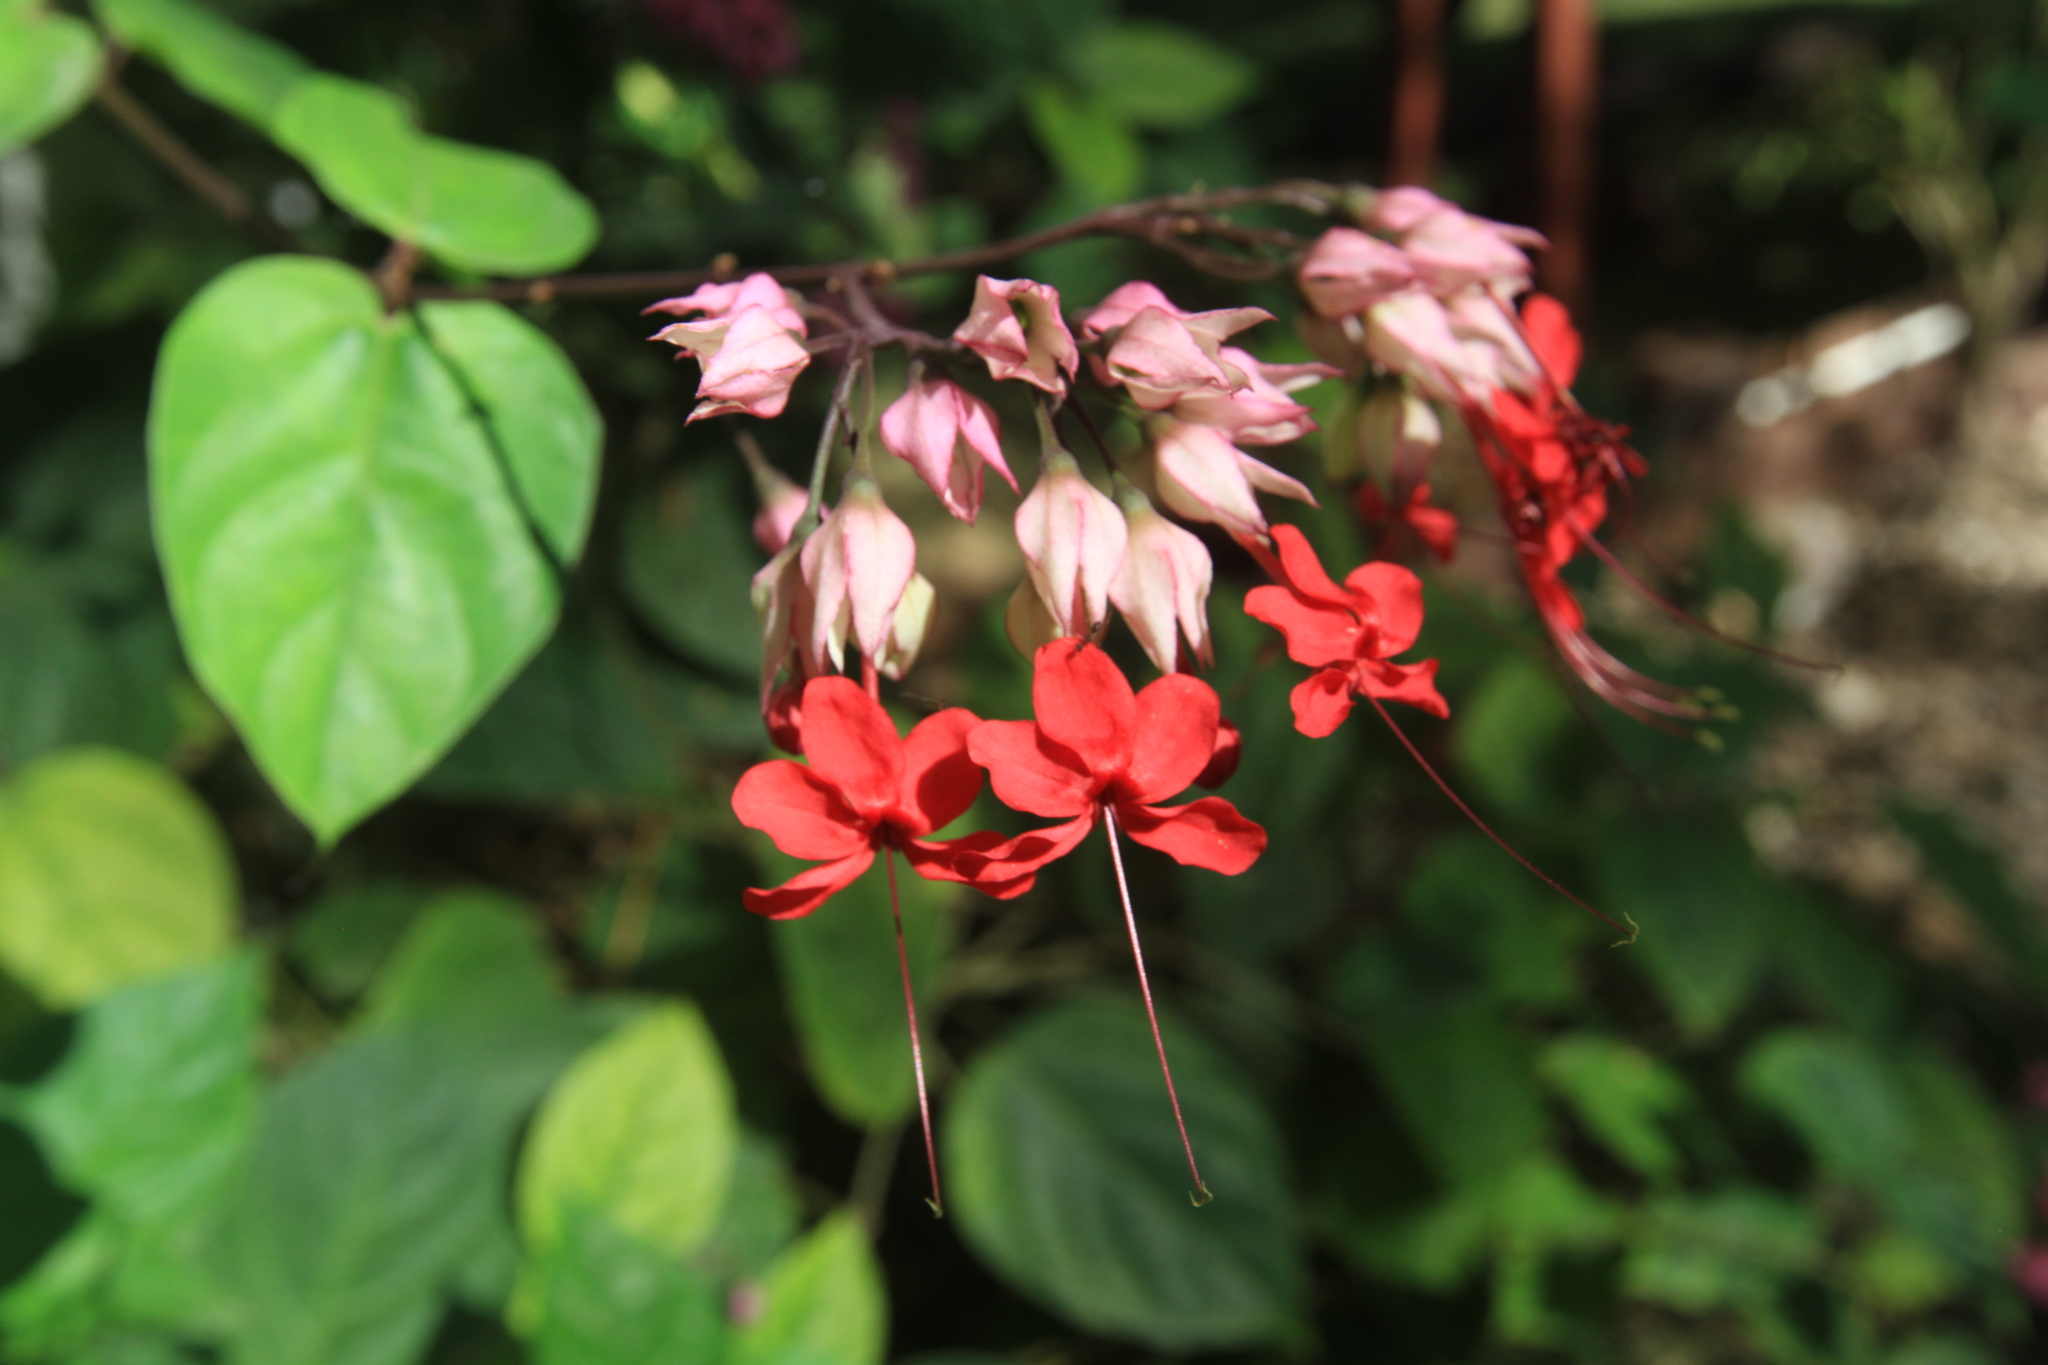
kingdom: Plantae
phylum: Tracheophyta
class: Magnoliopsida
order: Lamiales
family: Lamiaceae
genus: Clerodendrum
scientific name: Clerodendrum speciosum
